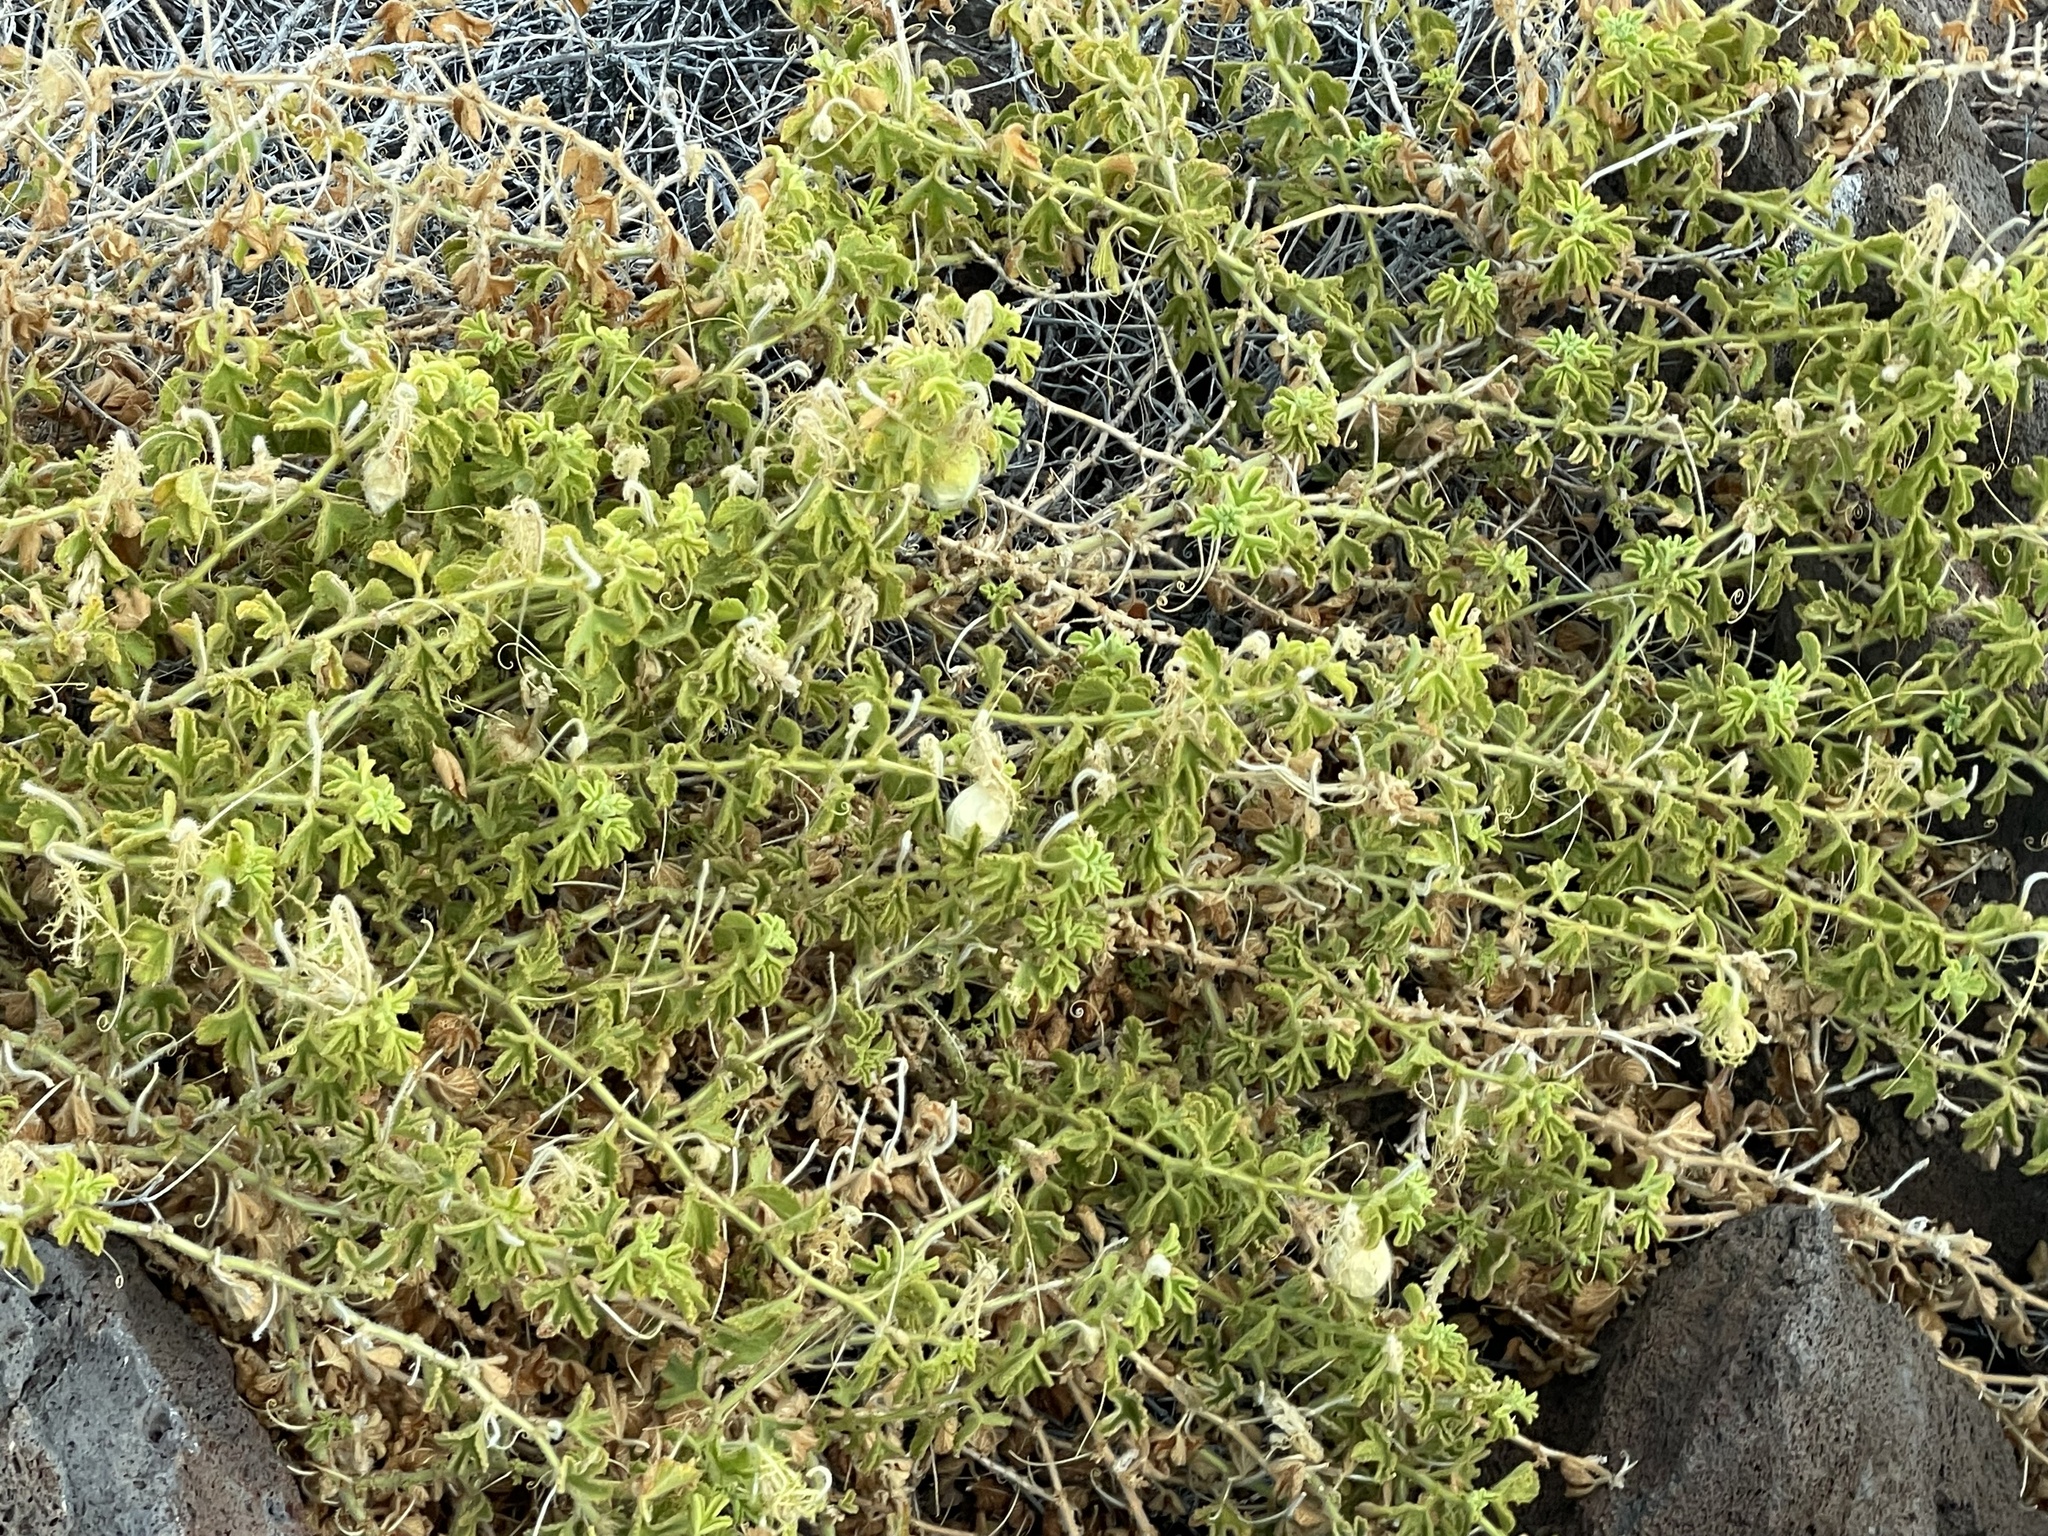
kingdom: Plantae
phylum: Tracheophyta
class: Magnoliopsida
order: Malpighiales
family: Passifloraceae
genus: Passiflora
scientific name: Passiflora palmeri
